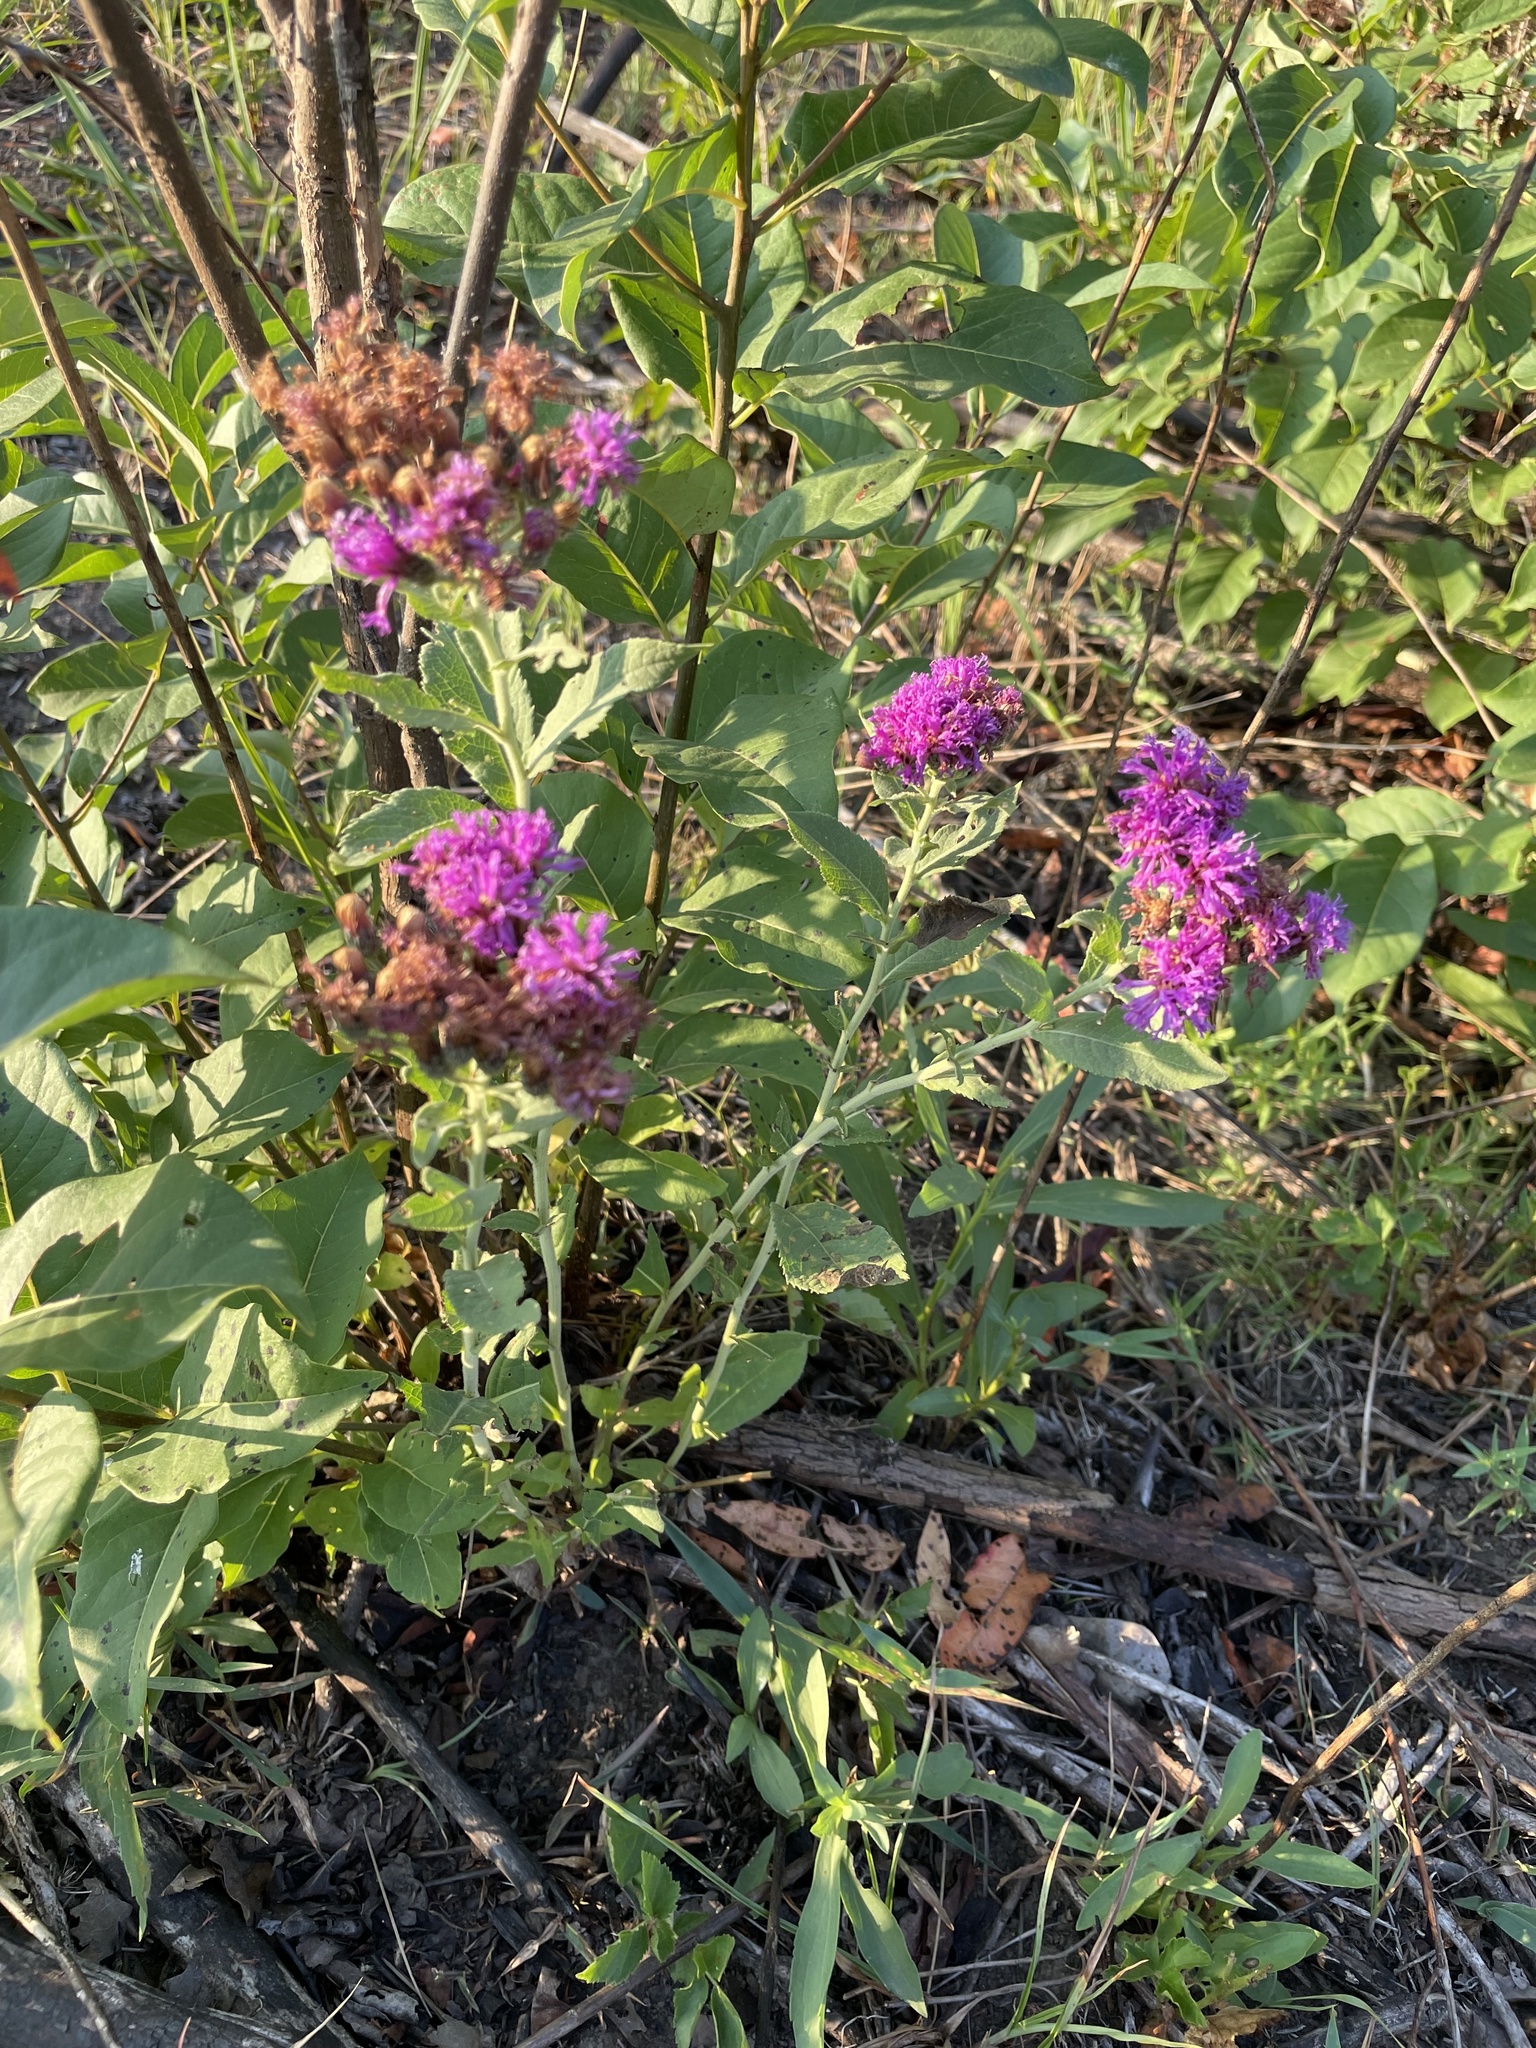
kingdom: Plantae
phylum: Tracheophyta
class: Magnoliopsida
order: Asterales
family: Asteraceae
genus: Vernonia
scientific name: Vernonia baldwinii
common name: Western ironweed
